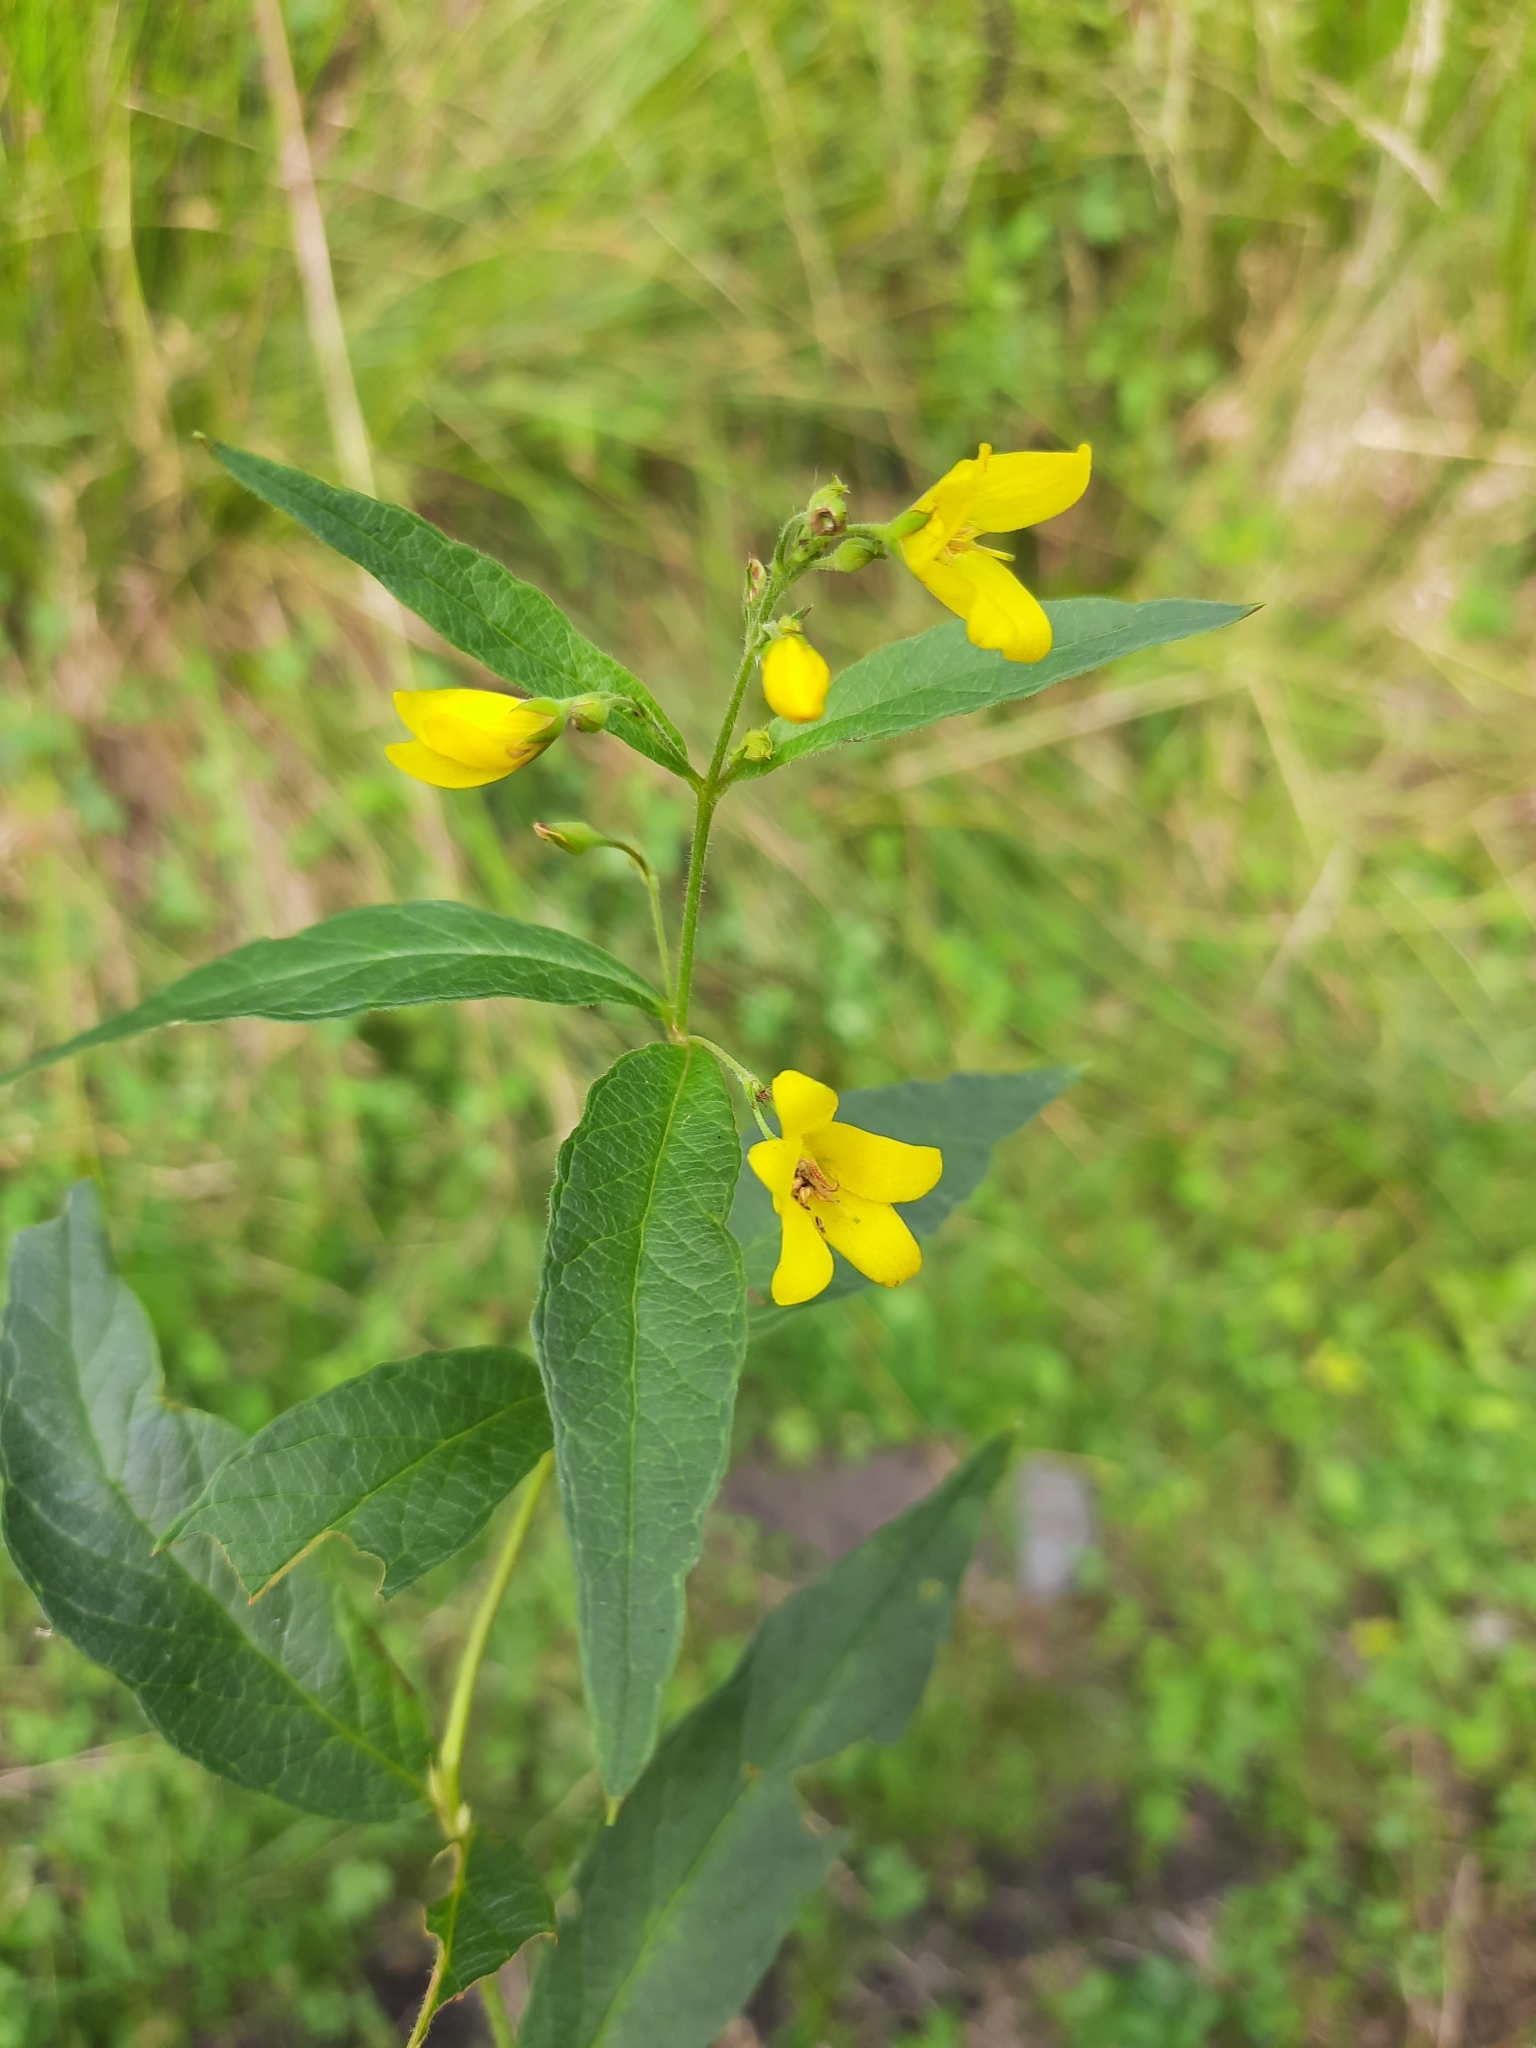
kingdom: Plantae
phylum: Tracheophyta
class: Magnoliopsida
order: Ericales
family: Primulaceae
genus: Lysimachia
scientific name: Lysimachia vulgaris
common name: Yellow loosestrife
